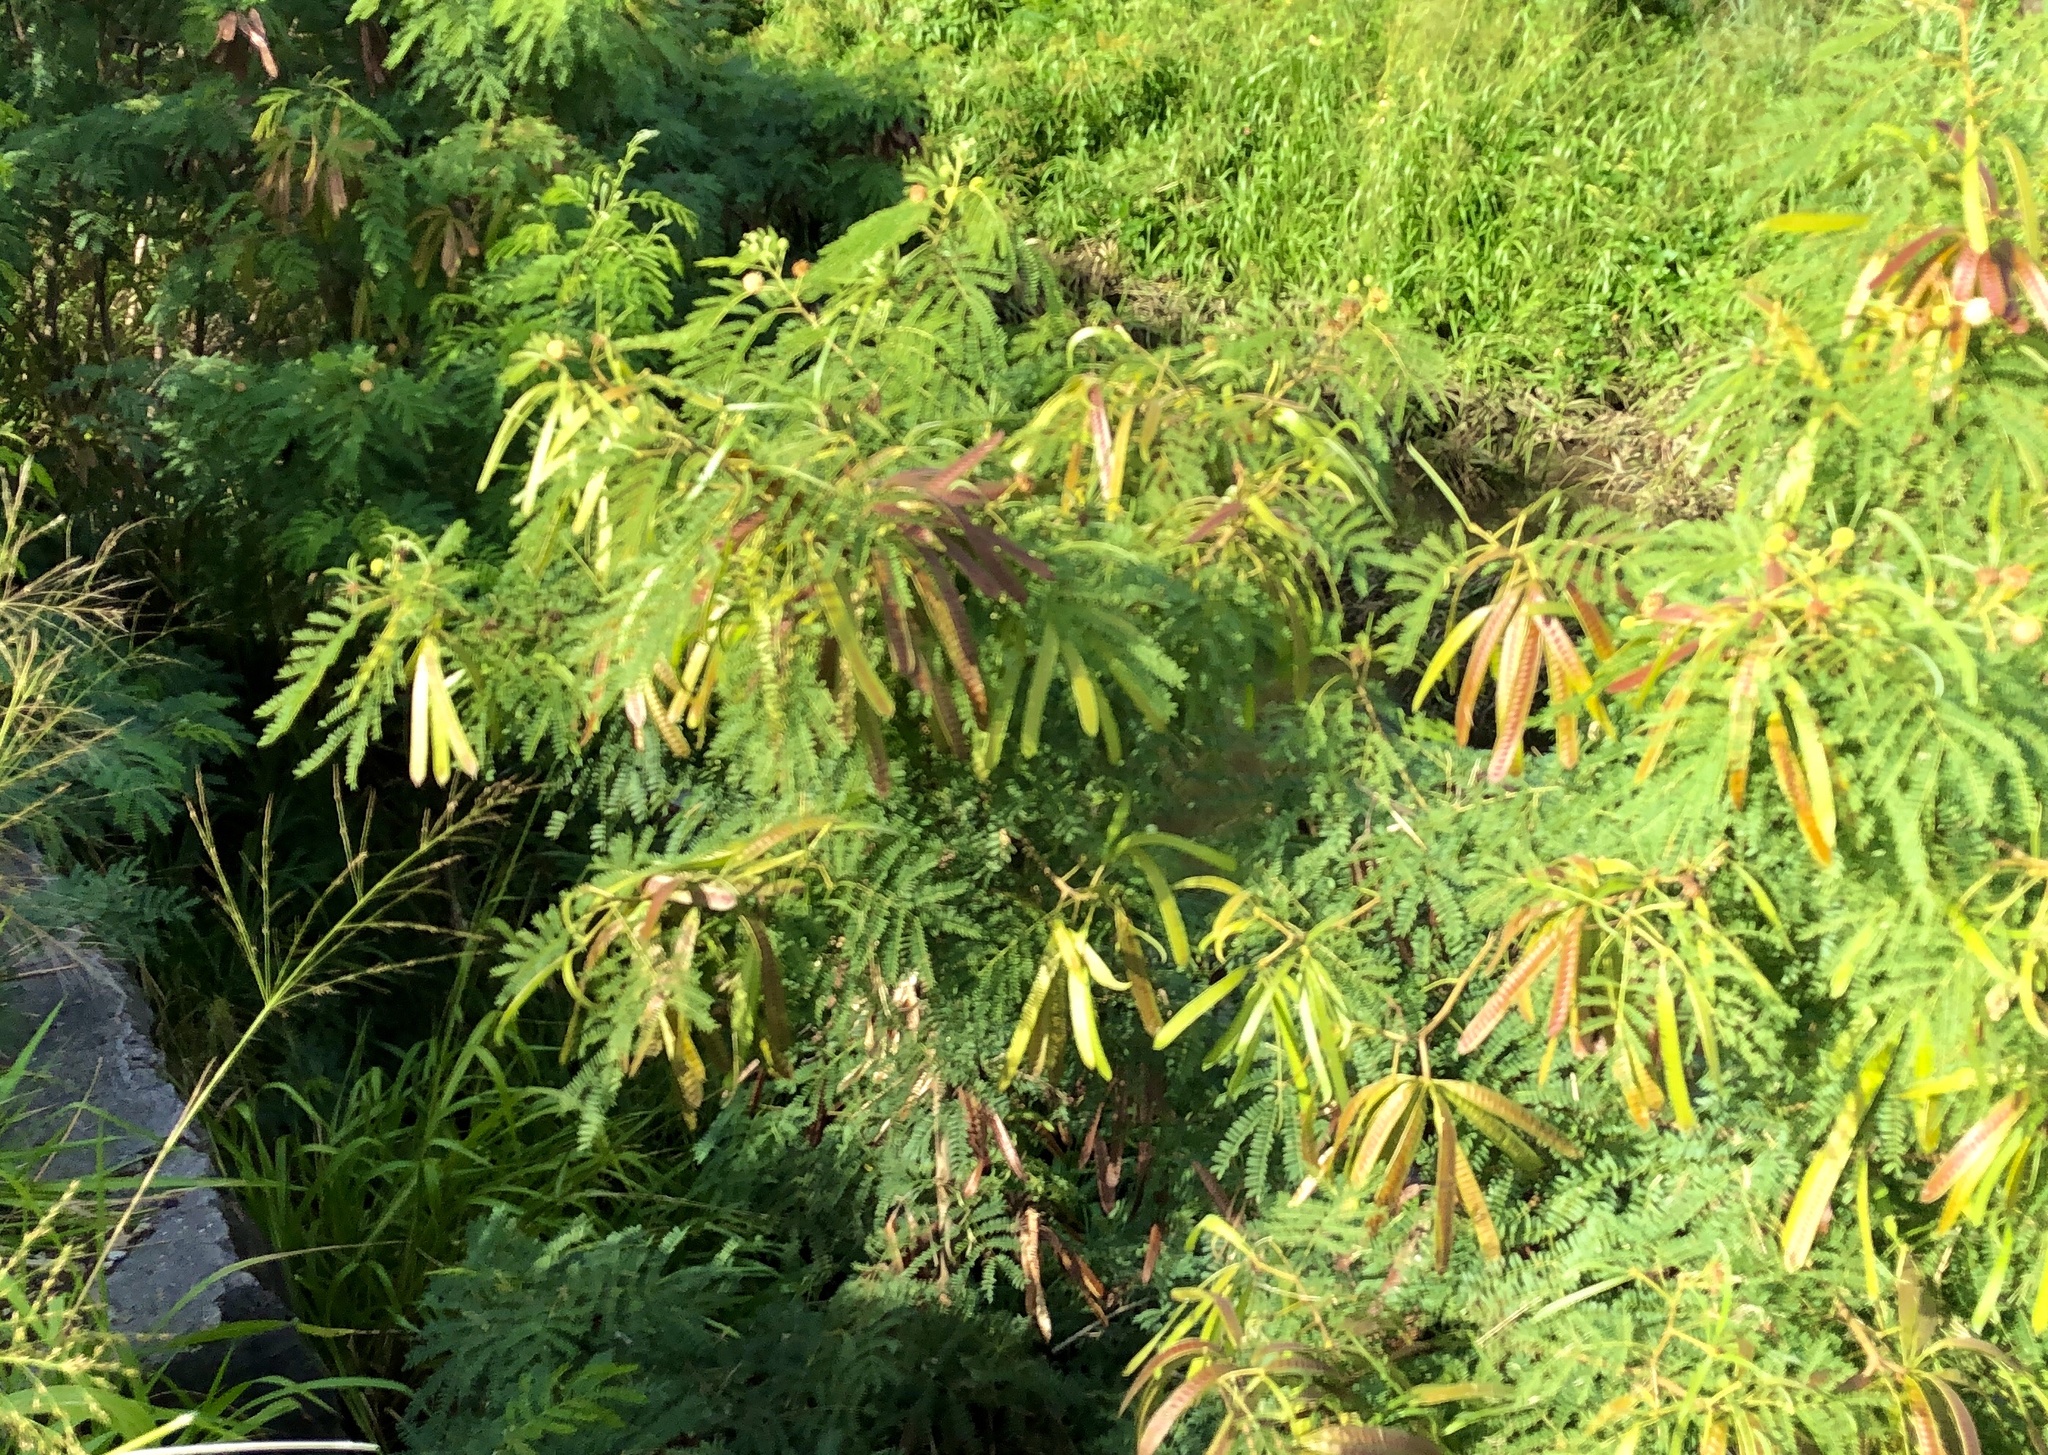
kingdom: Plantae
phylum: Tracheophyta
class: Magnoliopsida
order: Fabales
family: Fabaceae
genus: Leucaena
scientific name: Leucaena leucocephala
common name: White leadtree
